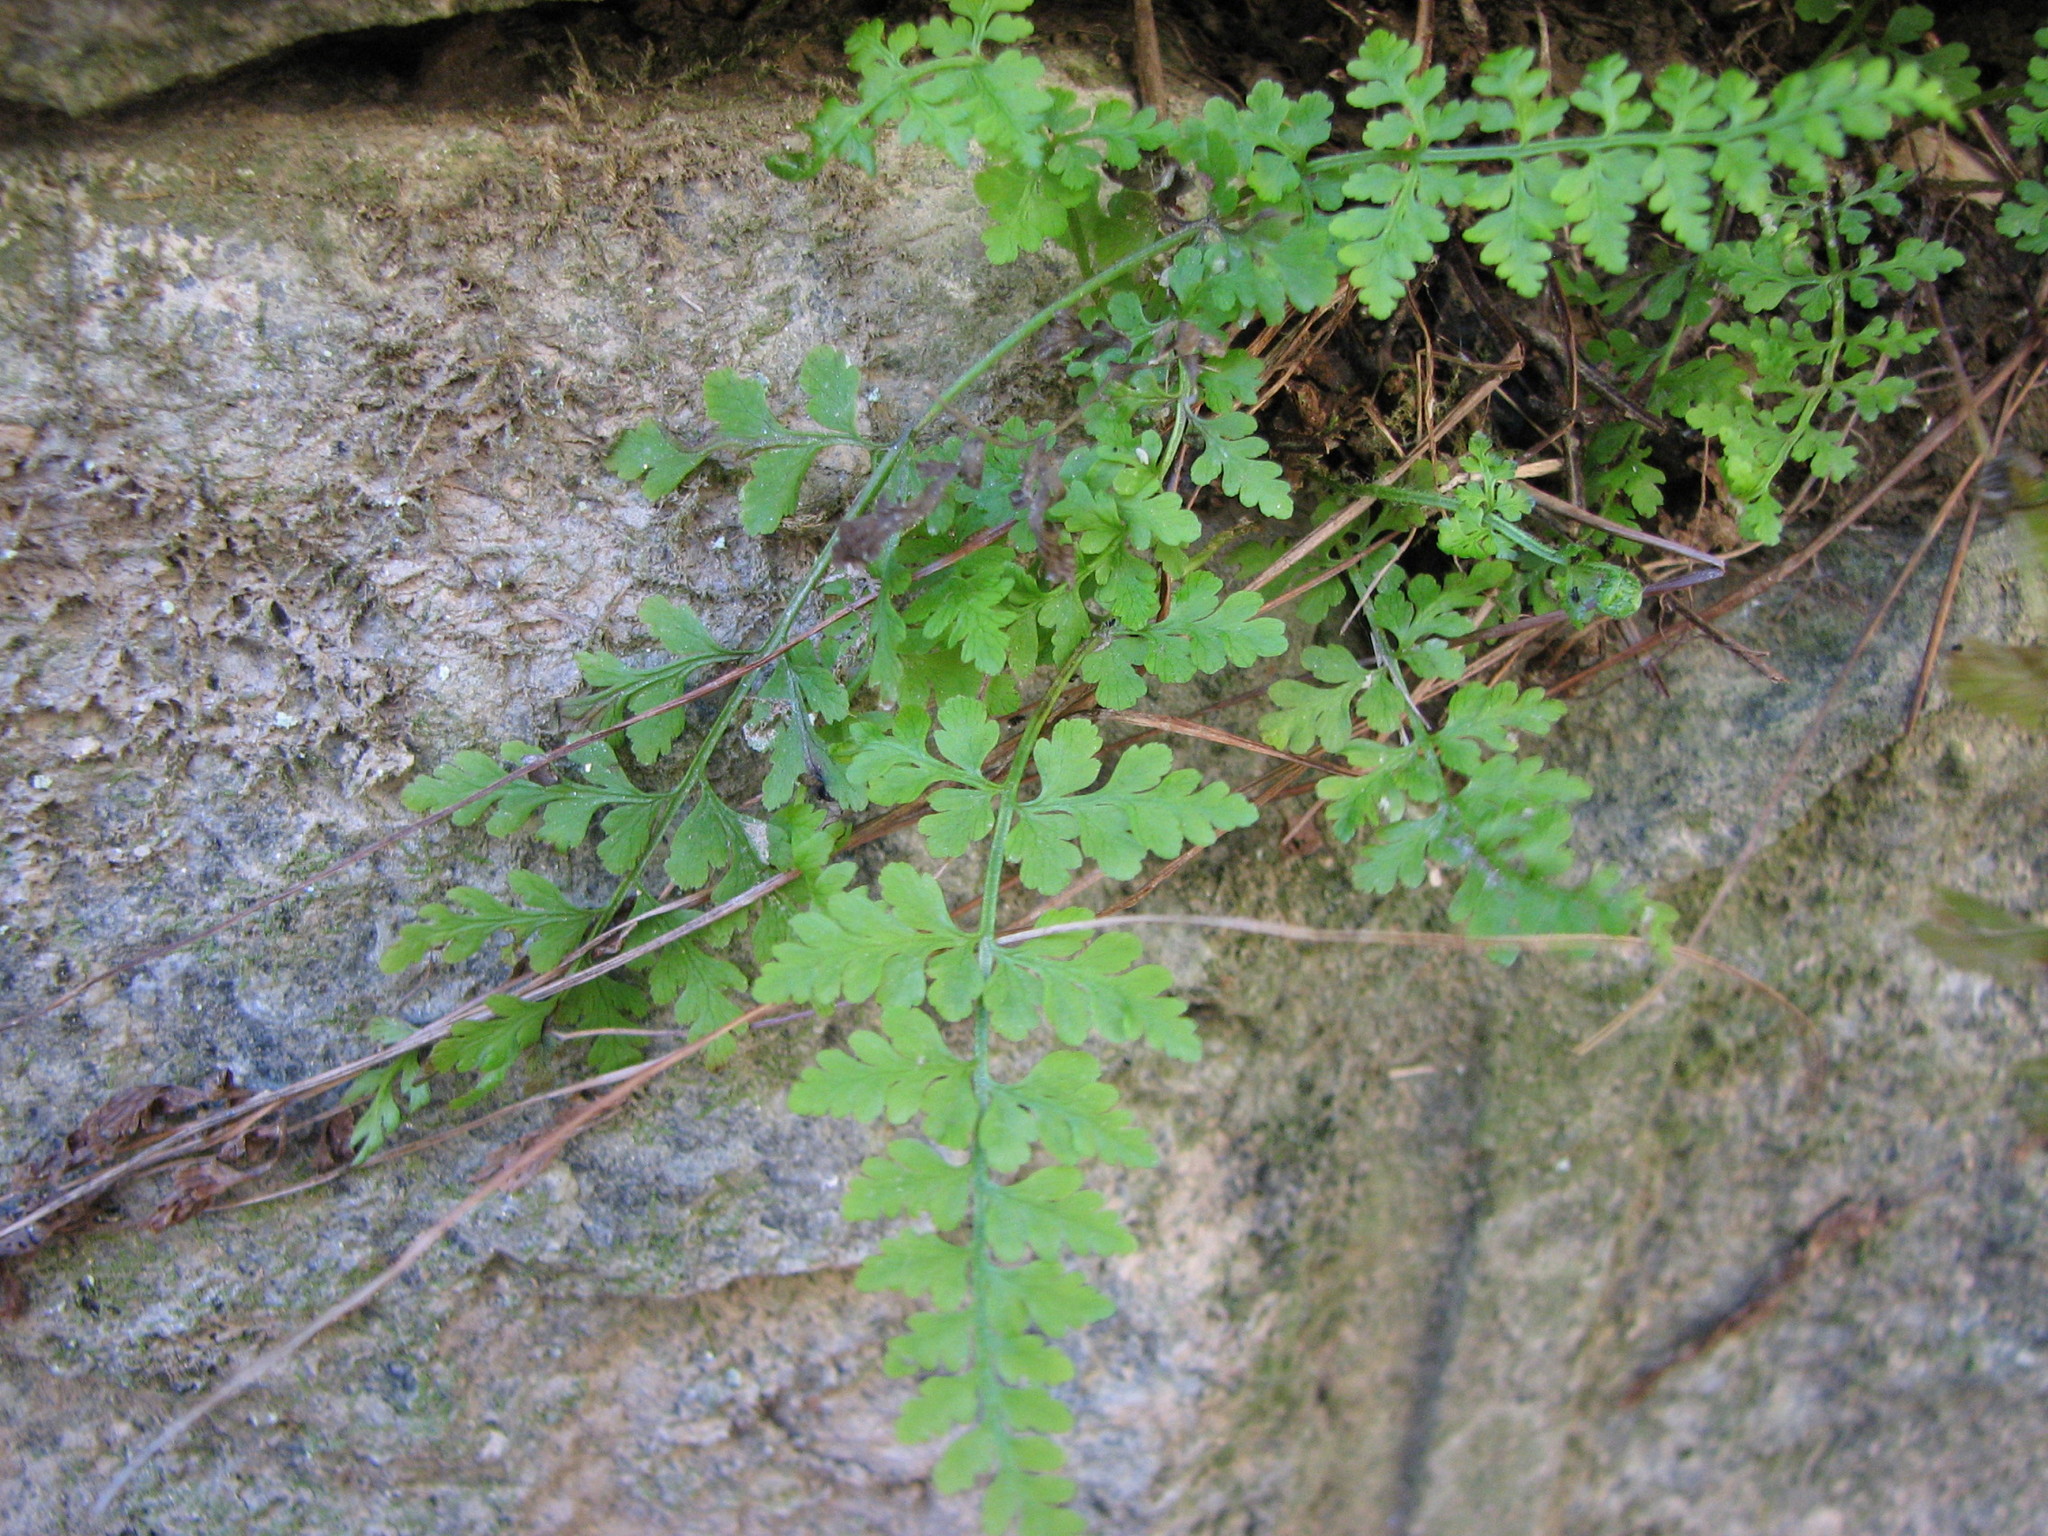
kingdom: Plantae
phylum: Tracheophyta
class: Polypodiopsida
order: Polypodiales
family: Cystopteridaceae
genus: Cystopteris
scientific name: Cystopteris tenuis
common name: Mackay's brittle fern
